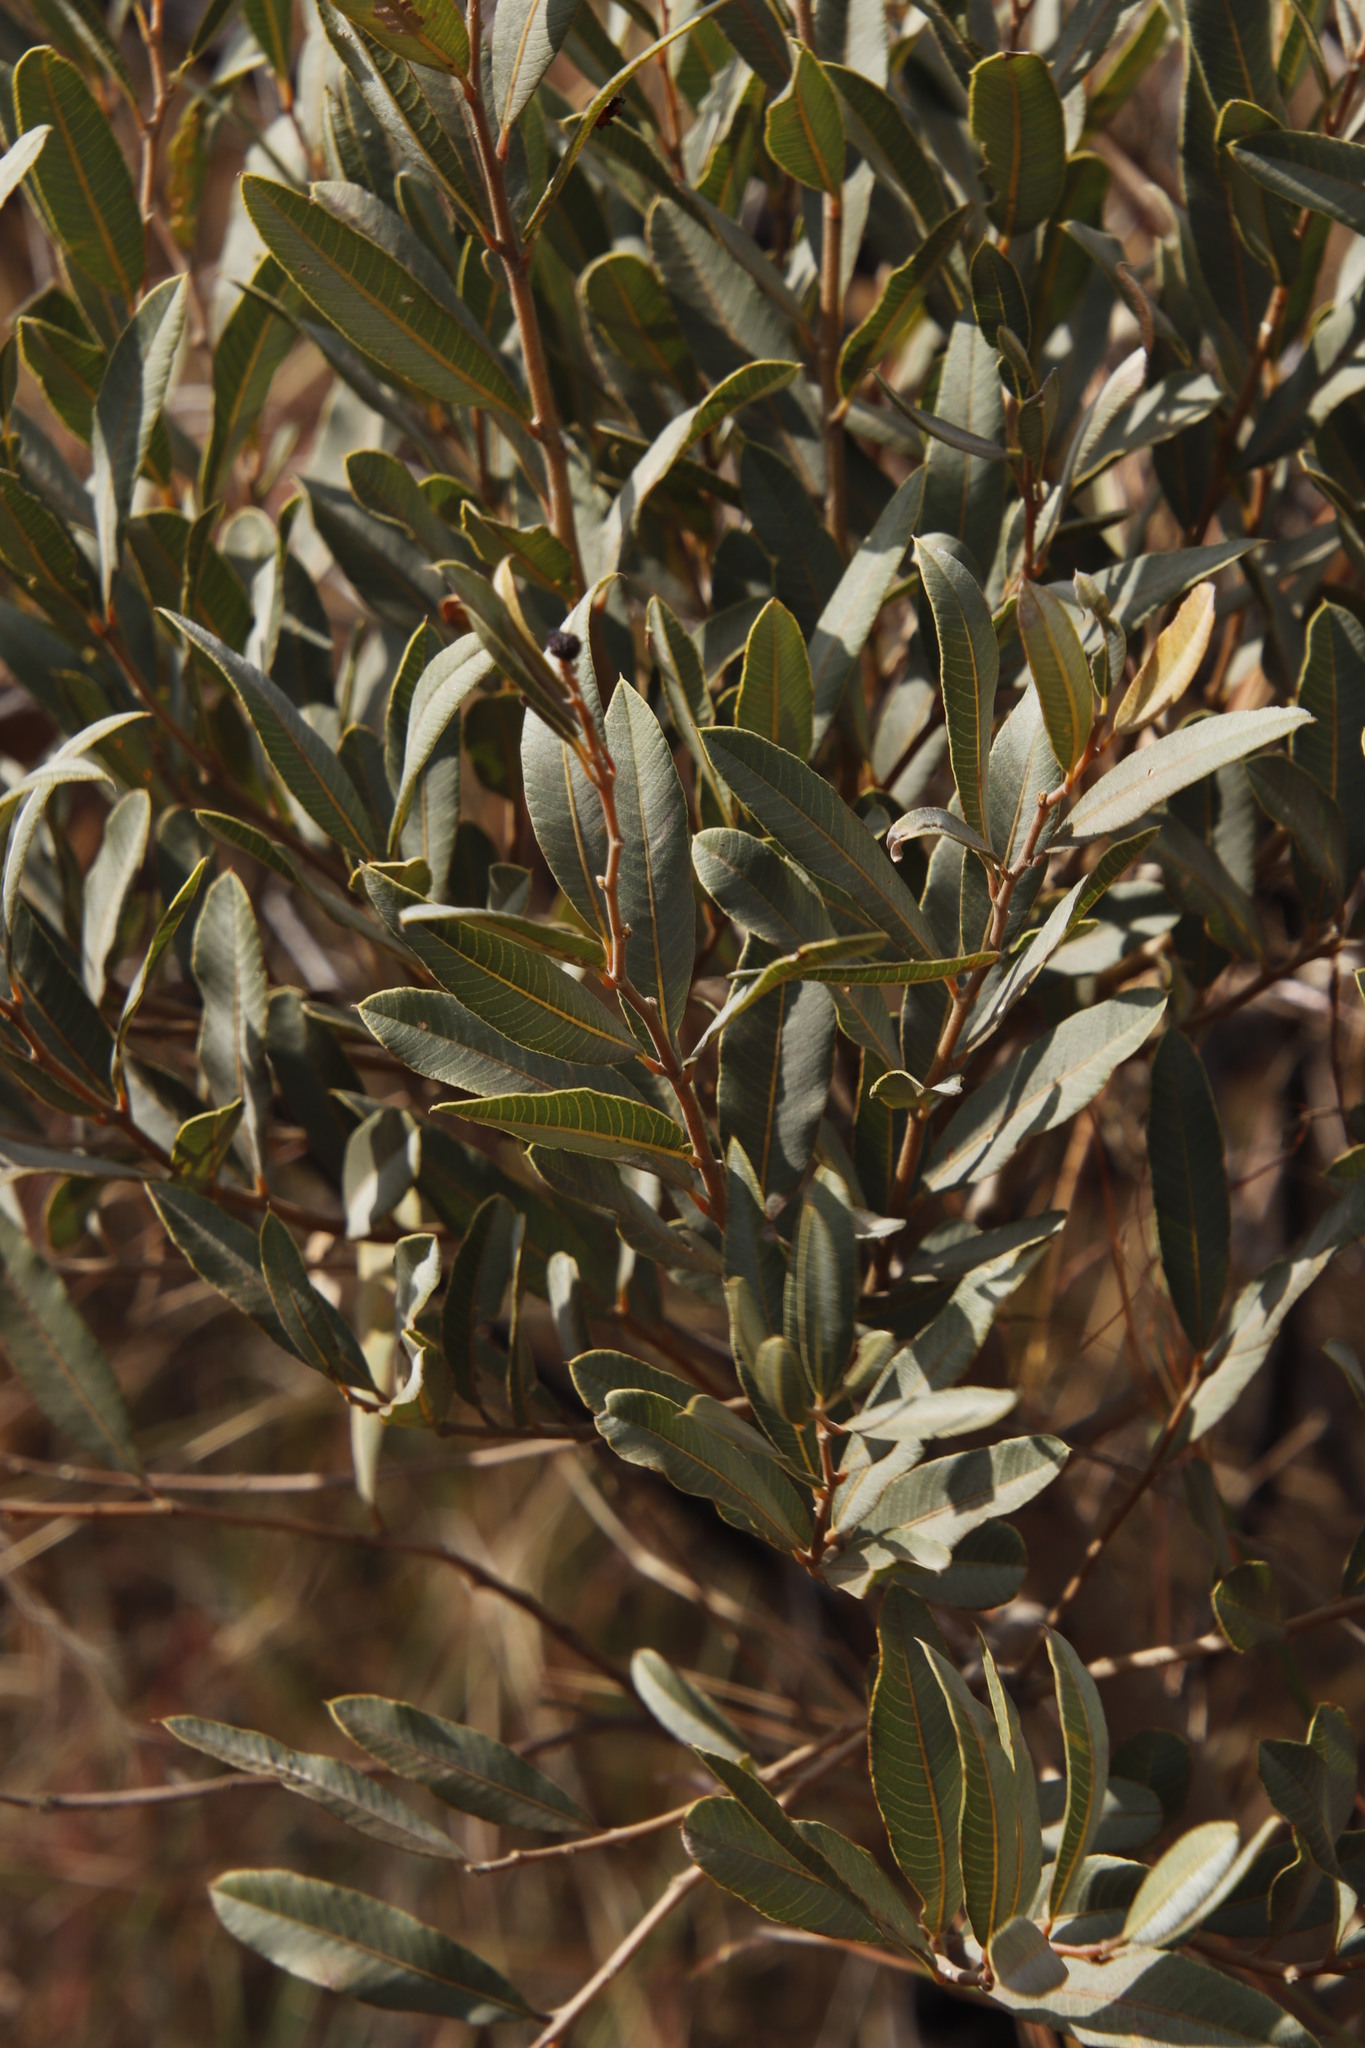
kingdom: Plantae
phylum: Tracheophyta
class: Magnoliopsida
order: Sapindales
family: Anacardiaceae
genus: Ozoroa
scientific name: Ozoroa paniculosa
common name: Bushveld ozoroa
